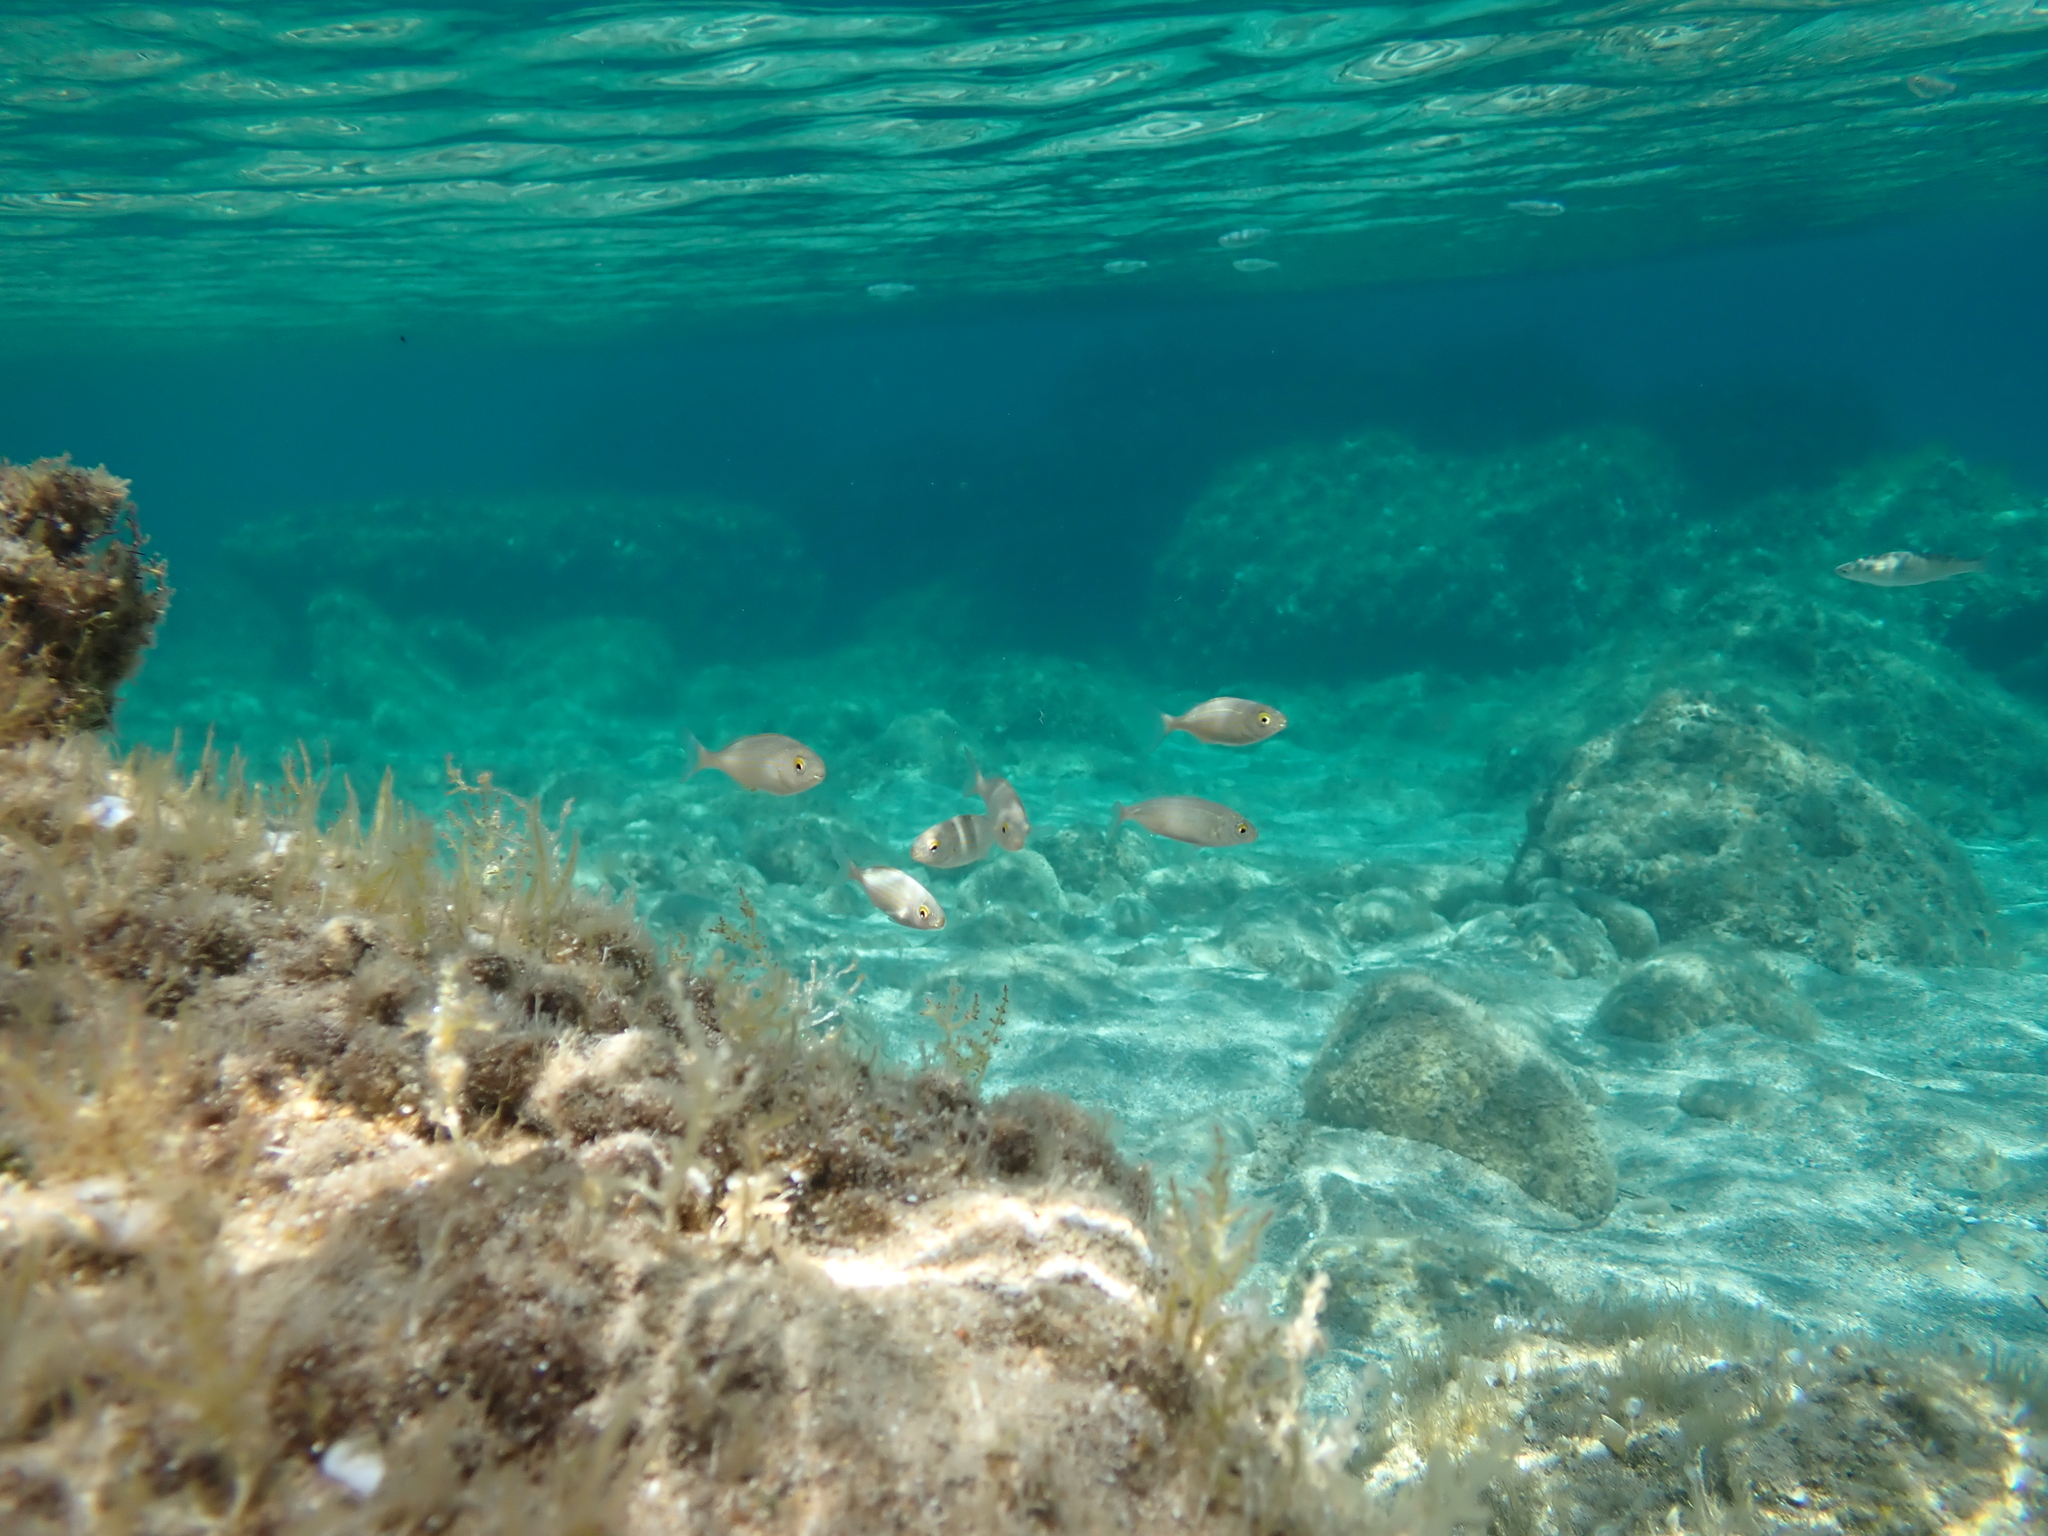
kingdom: Animalia
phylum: Chordata
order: Perciformes
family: Sparidae
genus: Sarpa
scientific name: Sarpa salpa
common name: Salema
